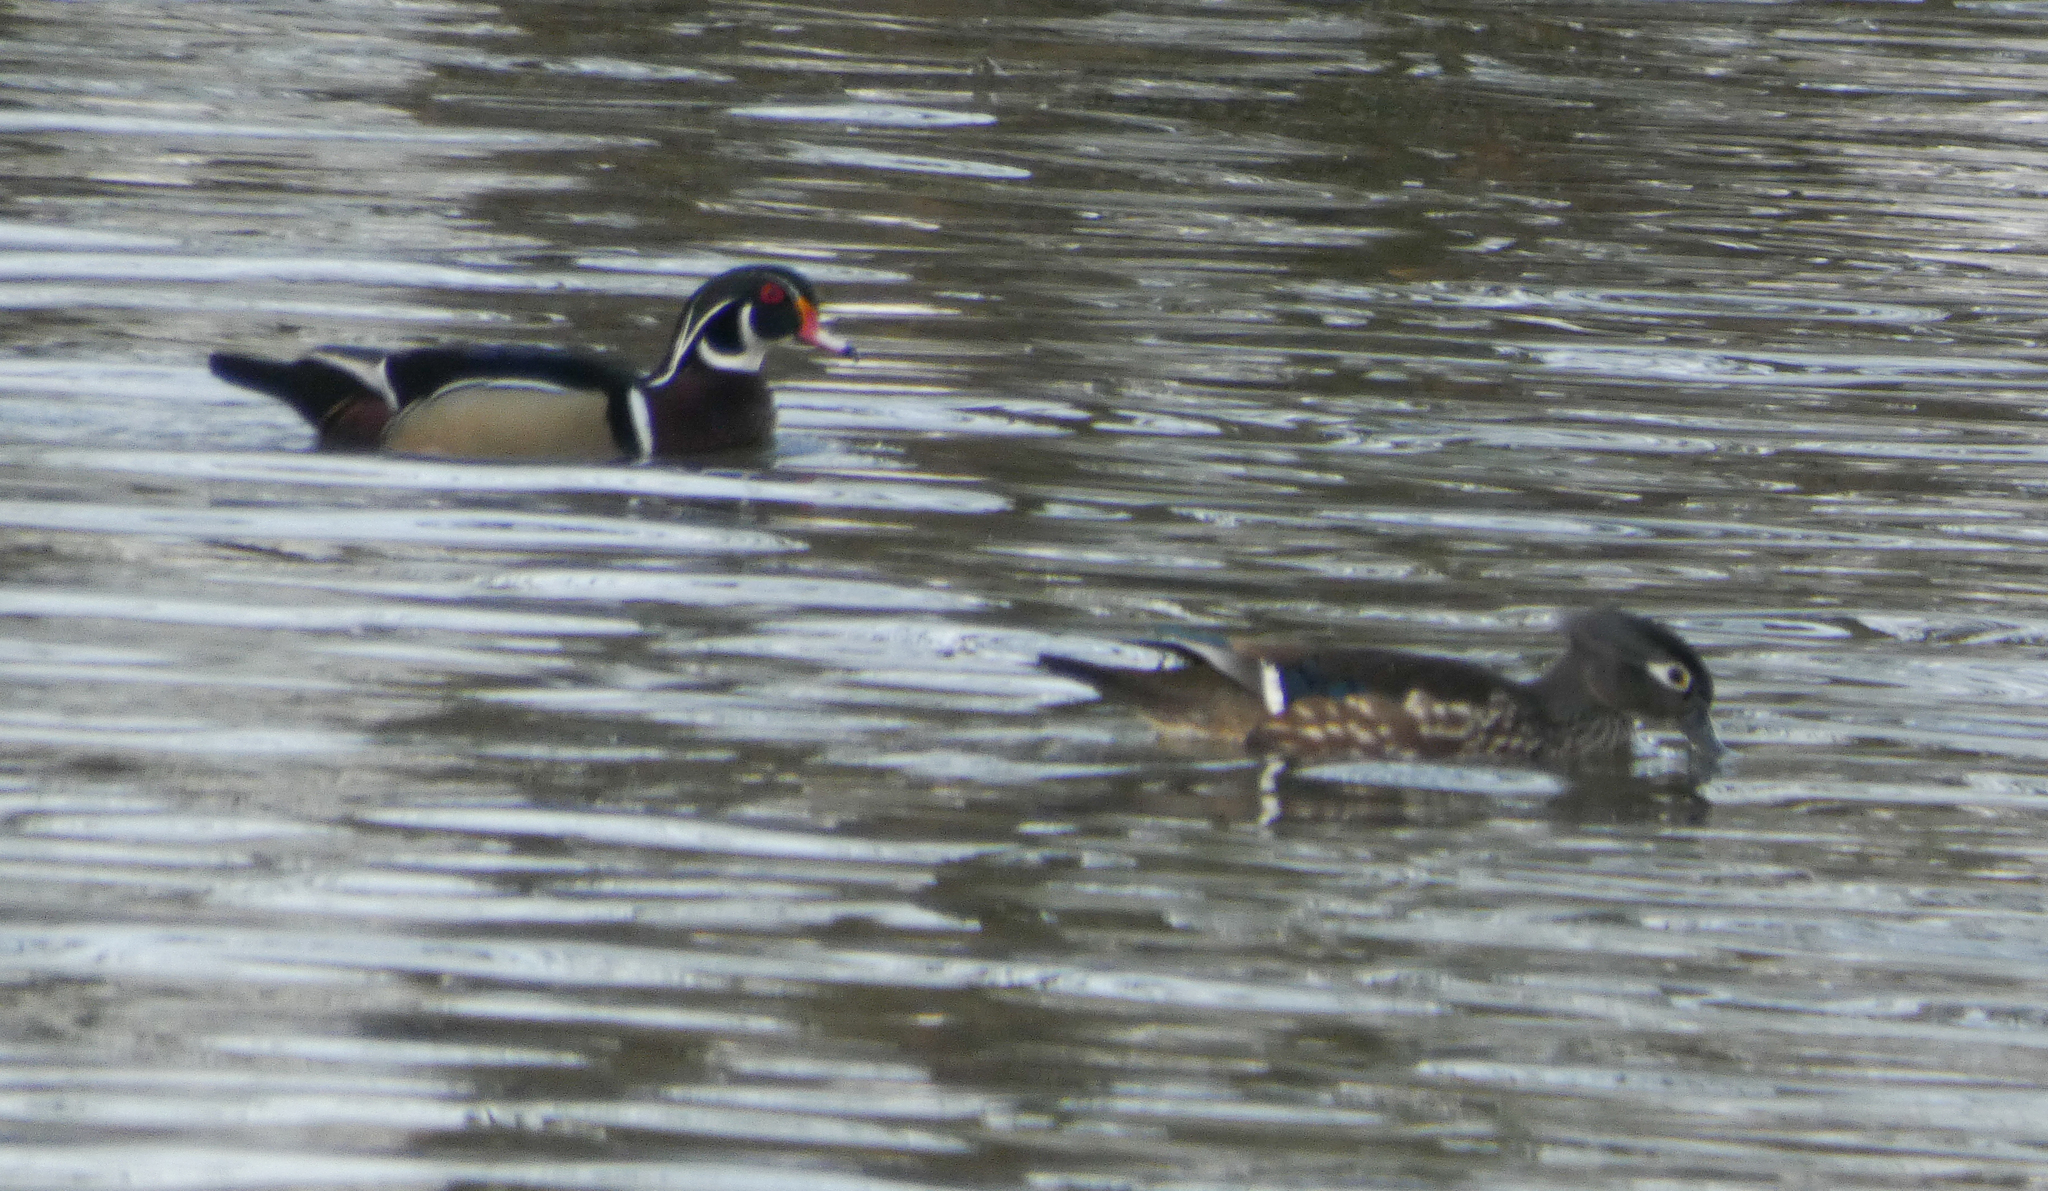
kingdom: Animalia
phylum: Chordata
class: Aves
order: Anseriformes
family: Anatidae
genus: Aix
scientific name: Aix sponsa
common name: Wood duck
